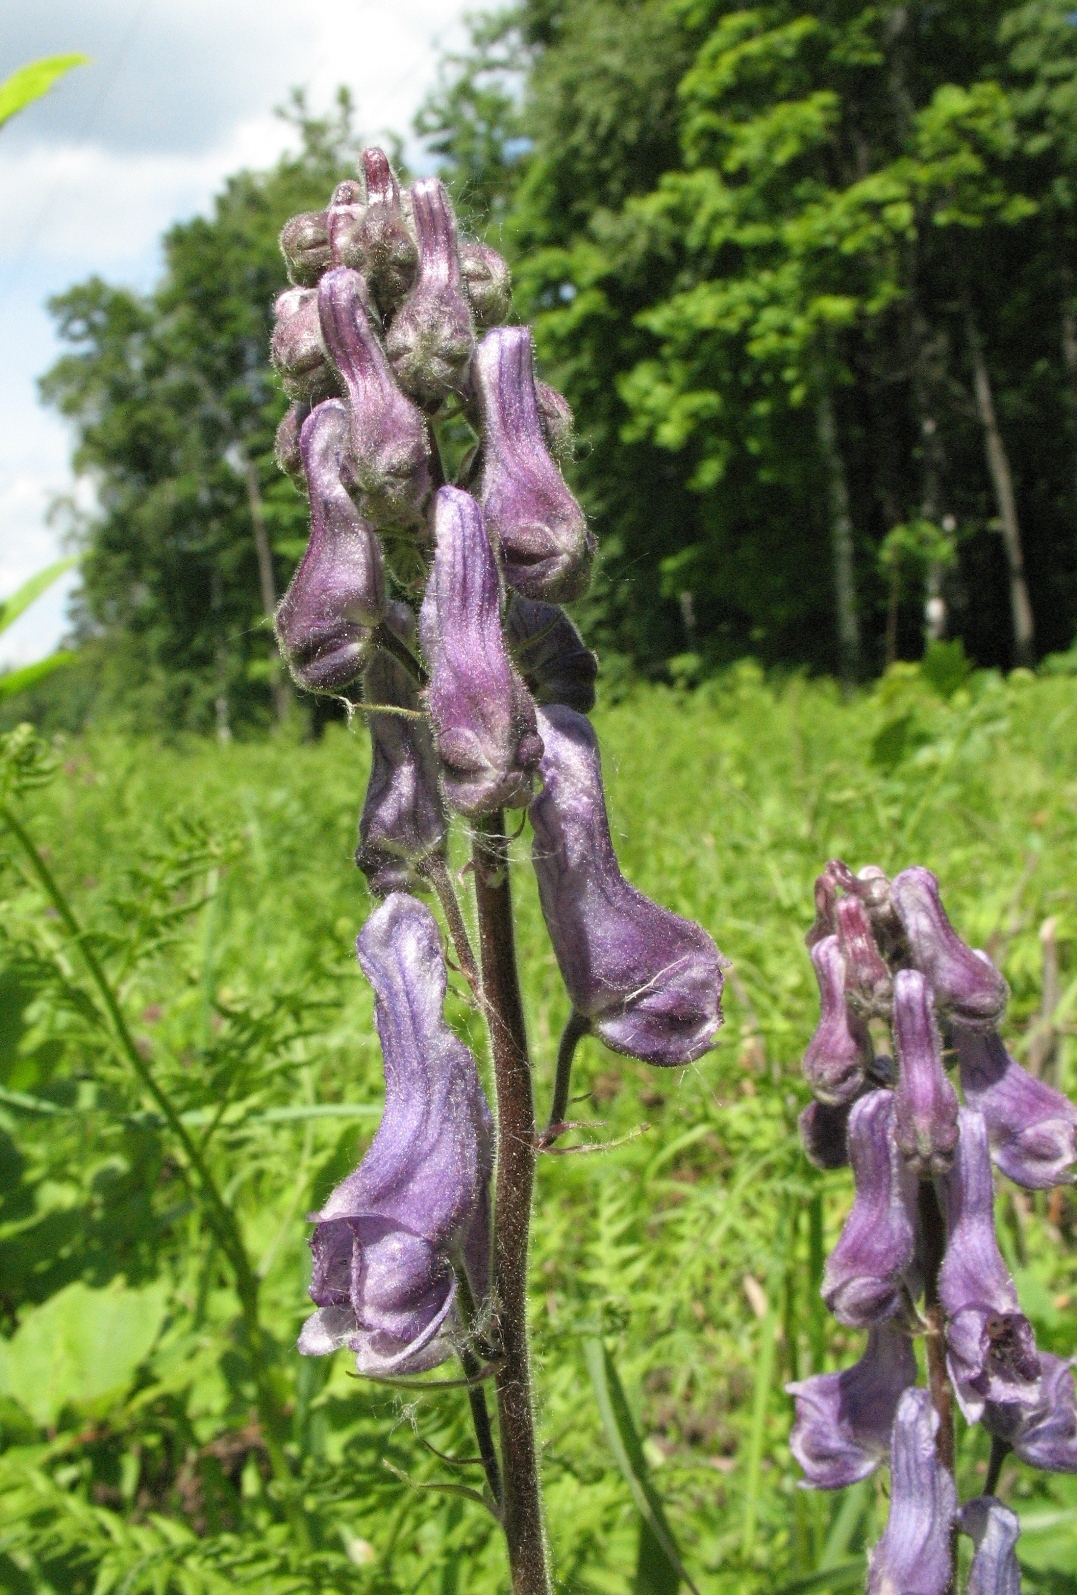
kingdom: Plantae
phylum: Tracheophyta
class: Magnoliopsida
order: Ranunculales
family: Ranunculaceae
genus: Aconitum
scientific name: Aconitum septentrionale
